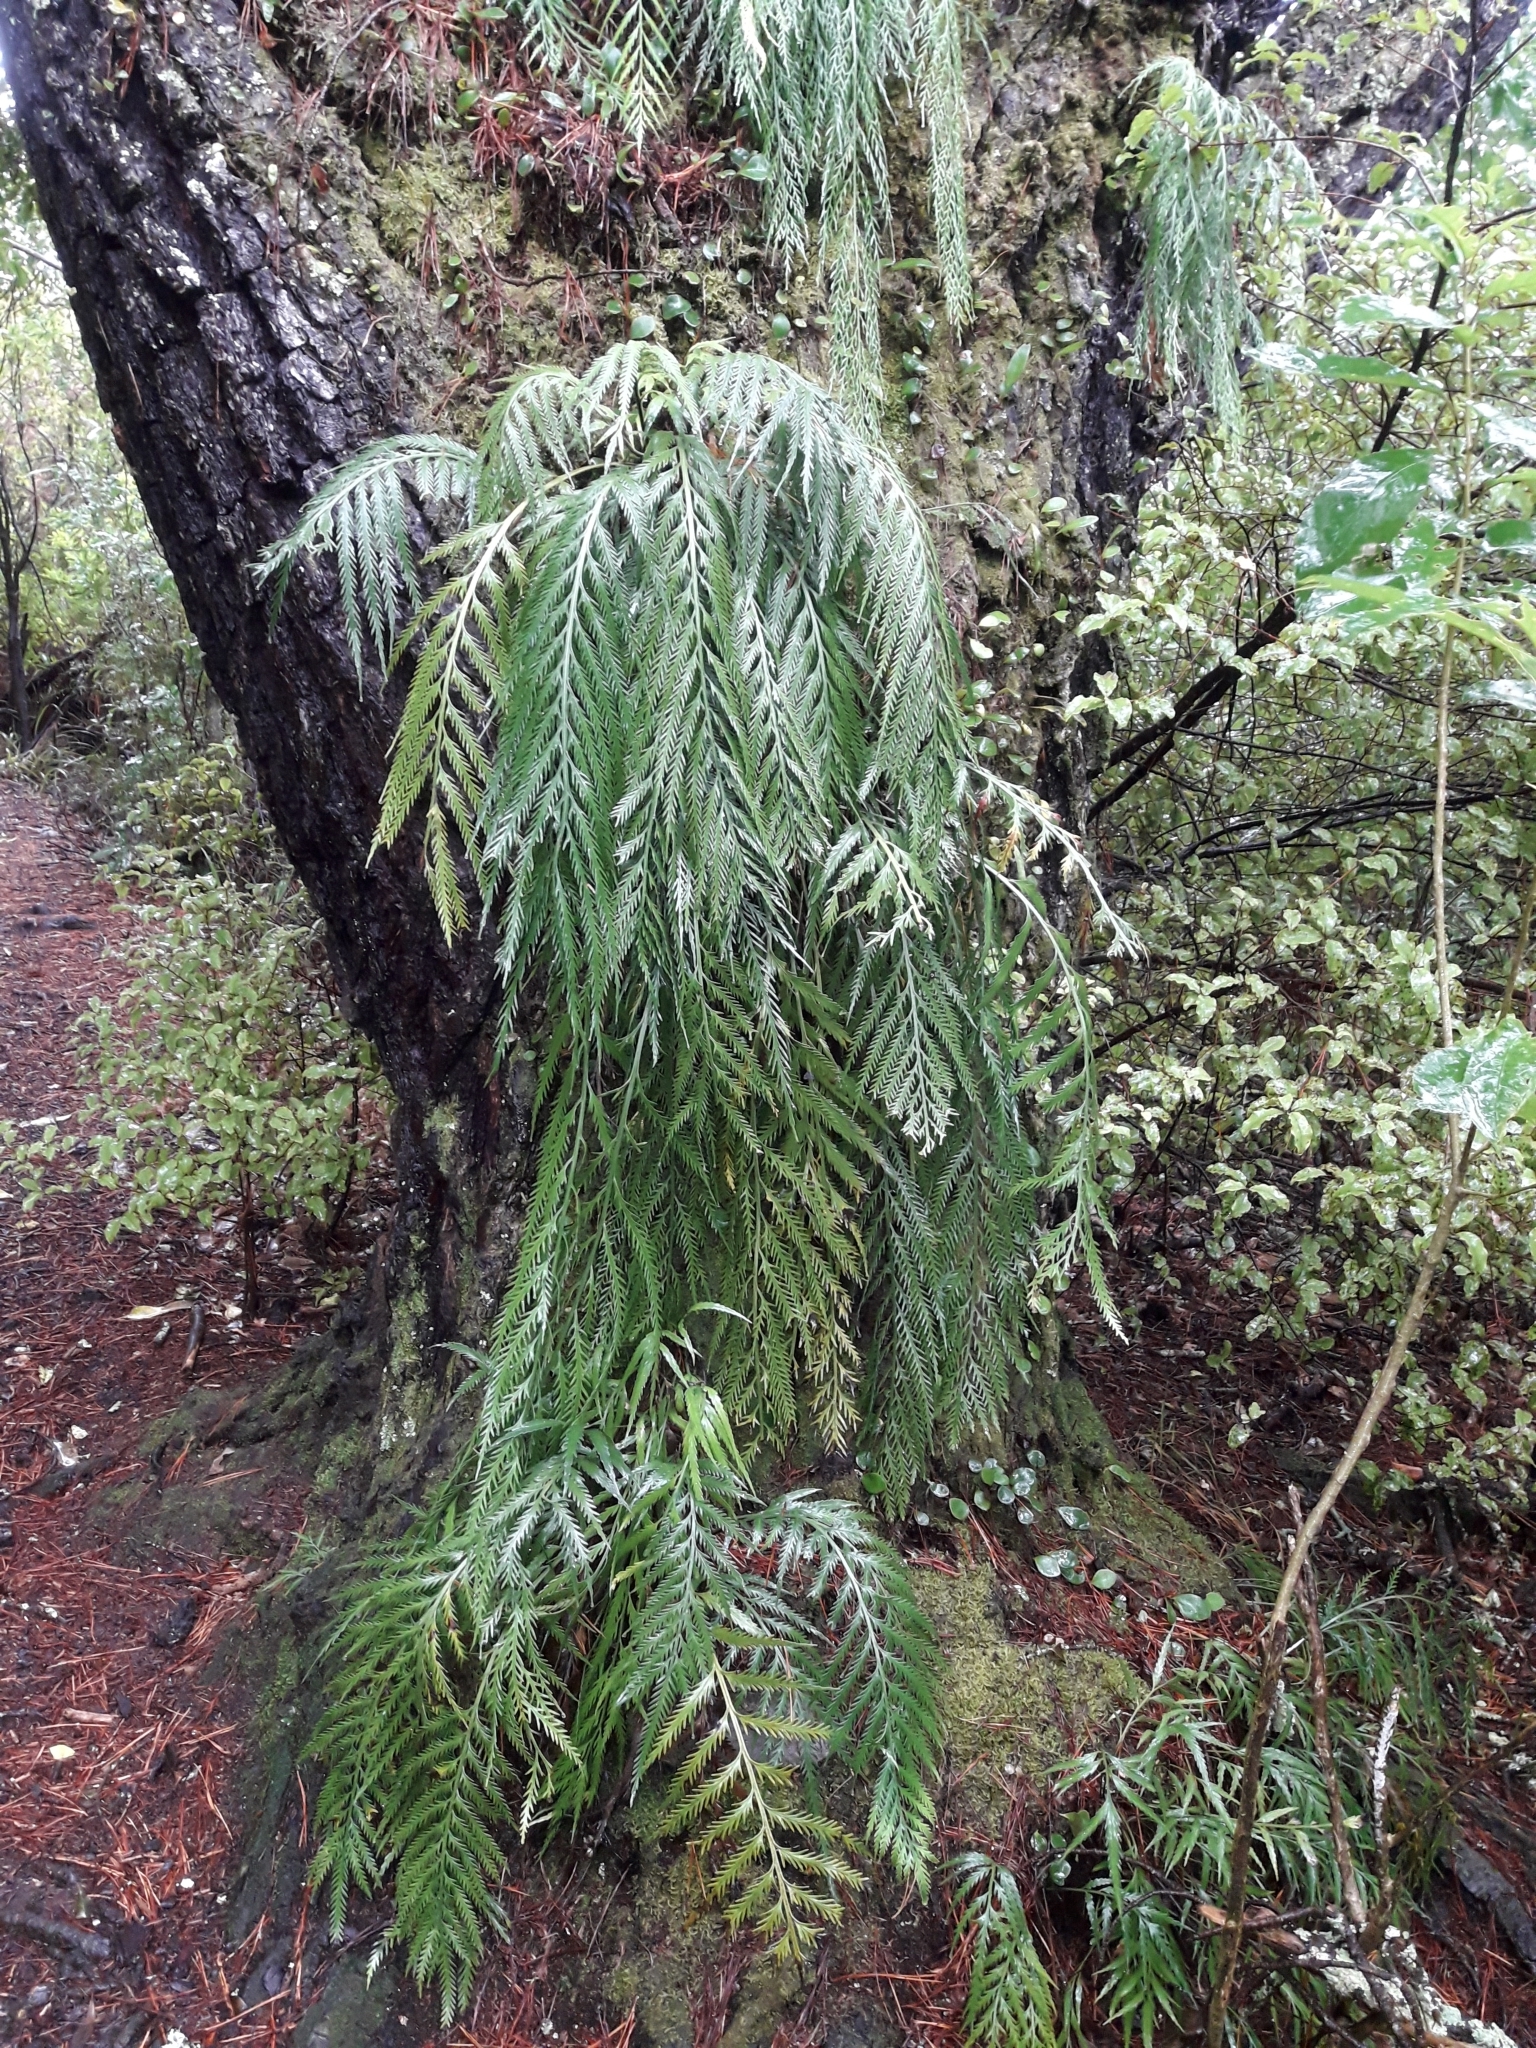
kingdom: Plantae
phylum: Tracheophyta
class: Polypodiopsida
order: Polypodiales
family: Aspleniaceae
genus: Asplenium
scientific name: Asplenium flaccidum
